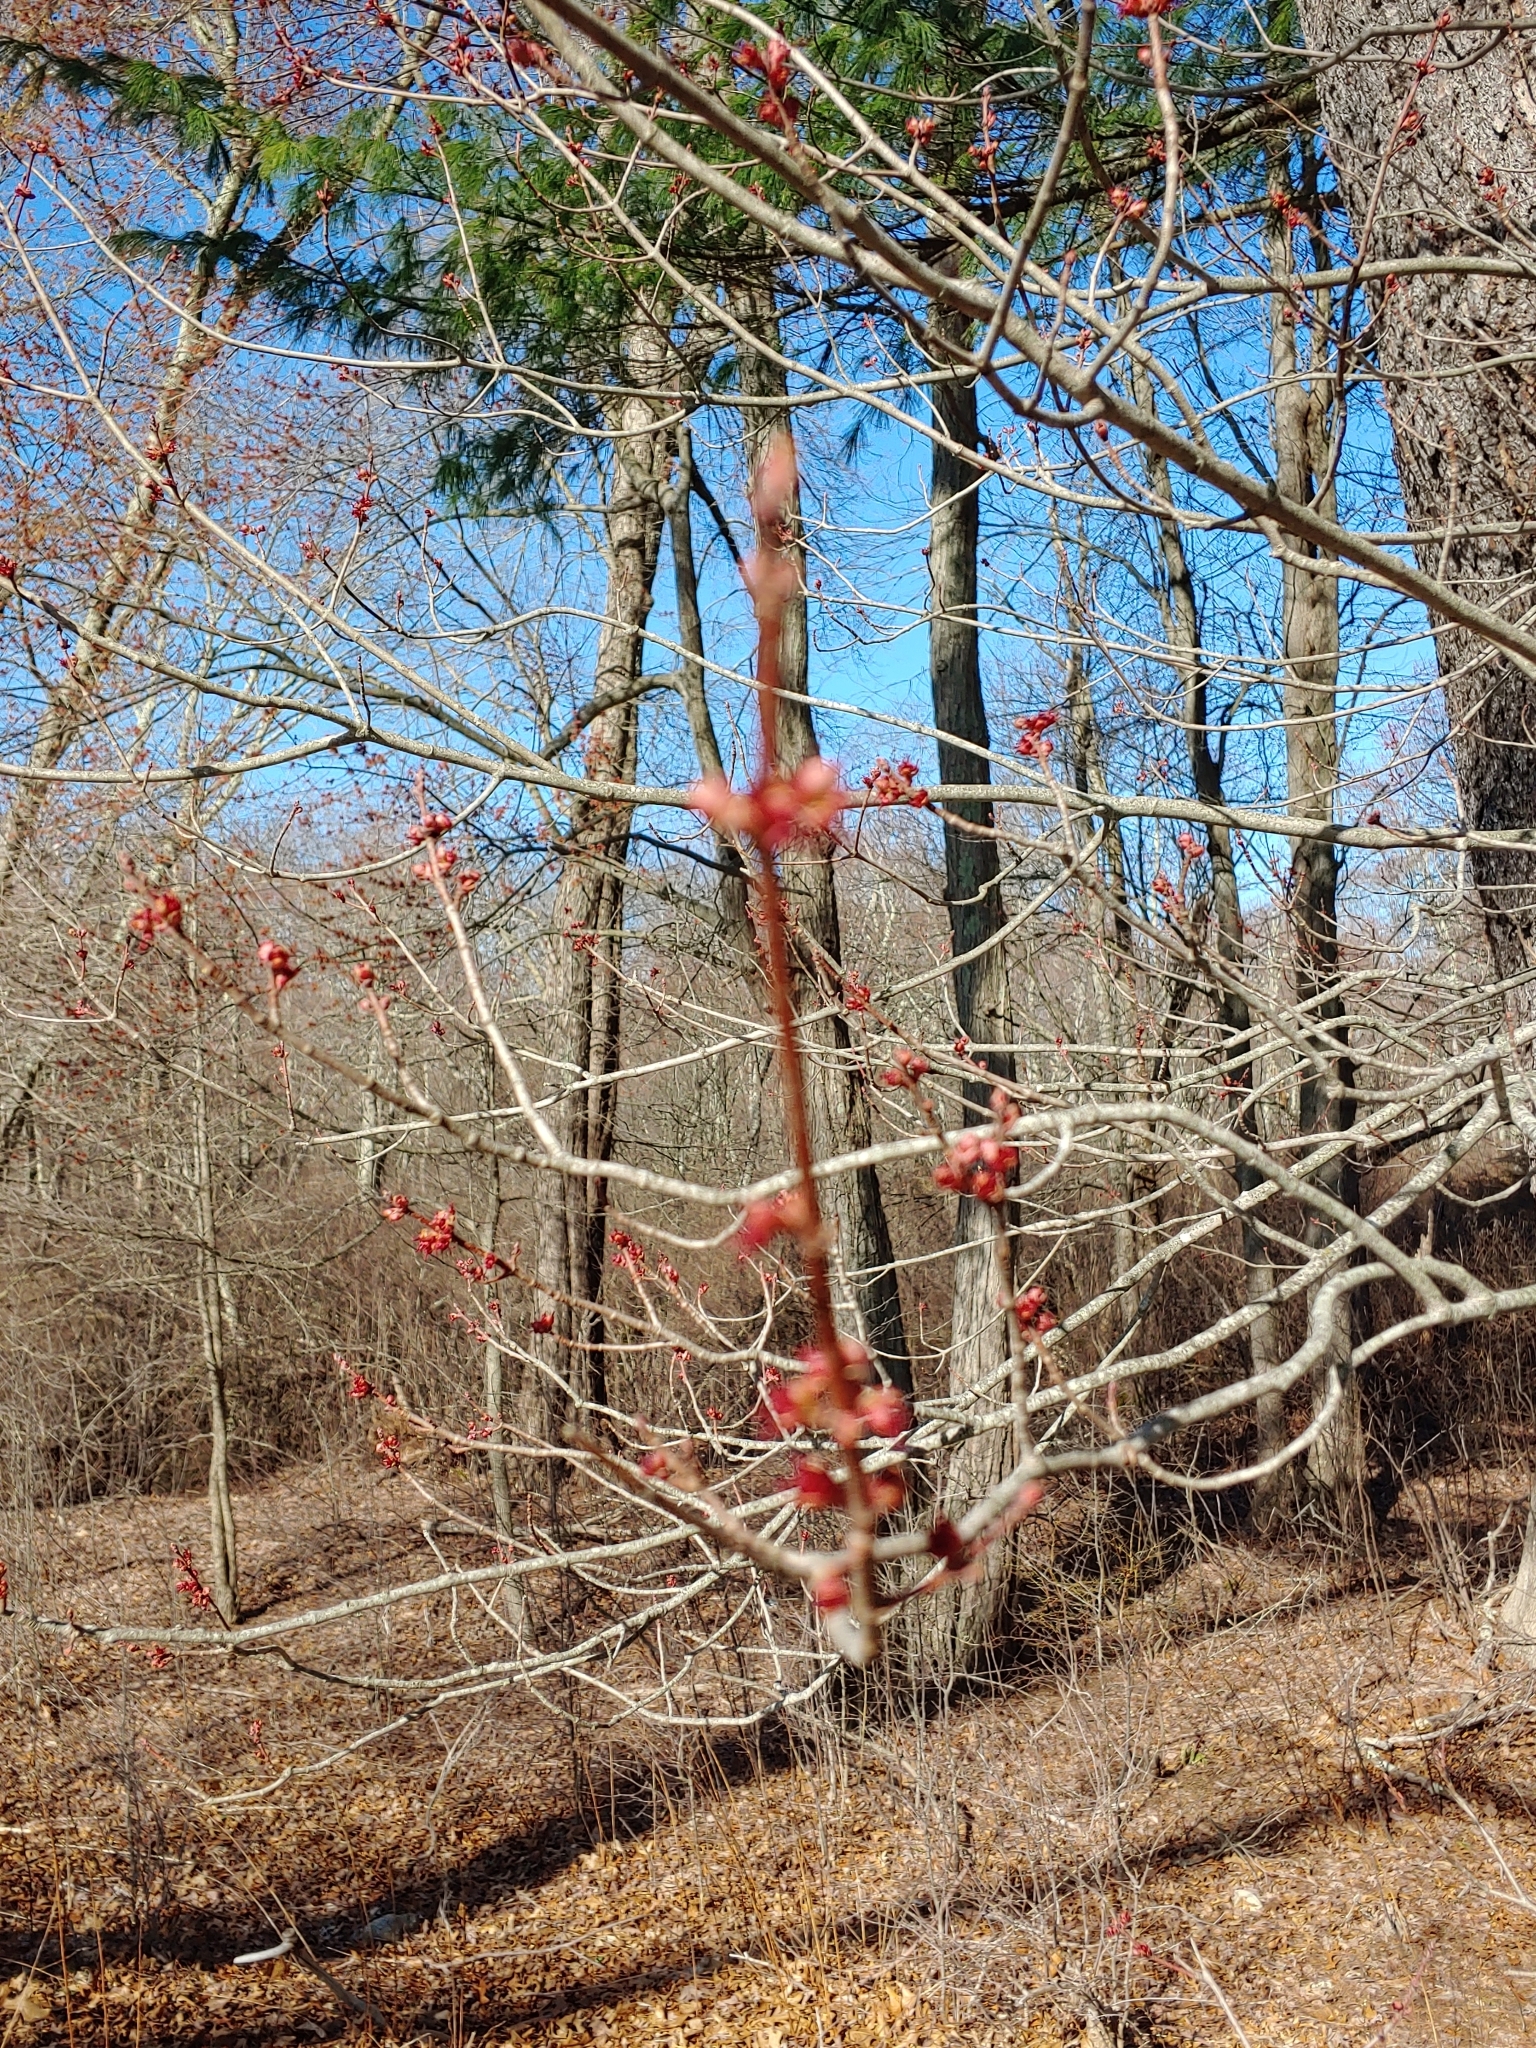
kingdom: Plantae
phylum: Tracheophyta
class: Magnoliopsida
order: Sapindales
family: Sapindaceae
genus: Acer
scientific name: Acer rubrum
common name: Red maple
